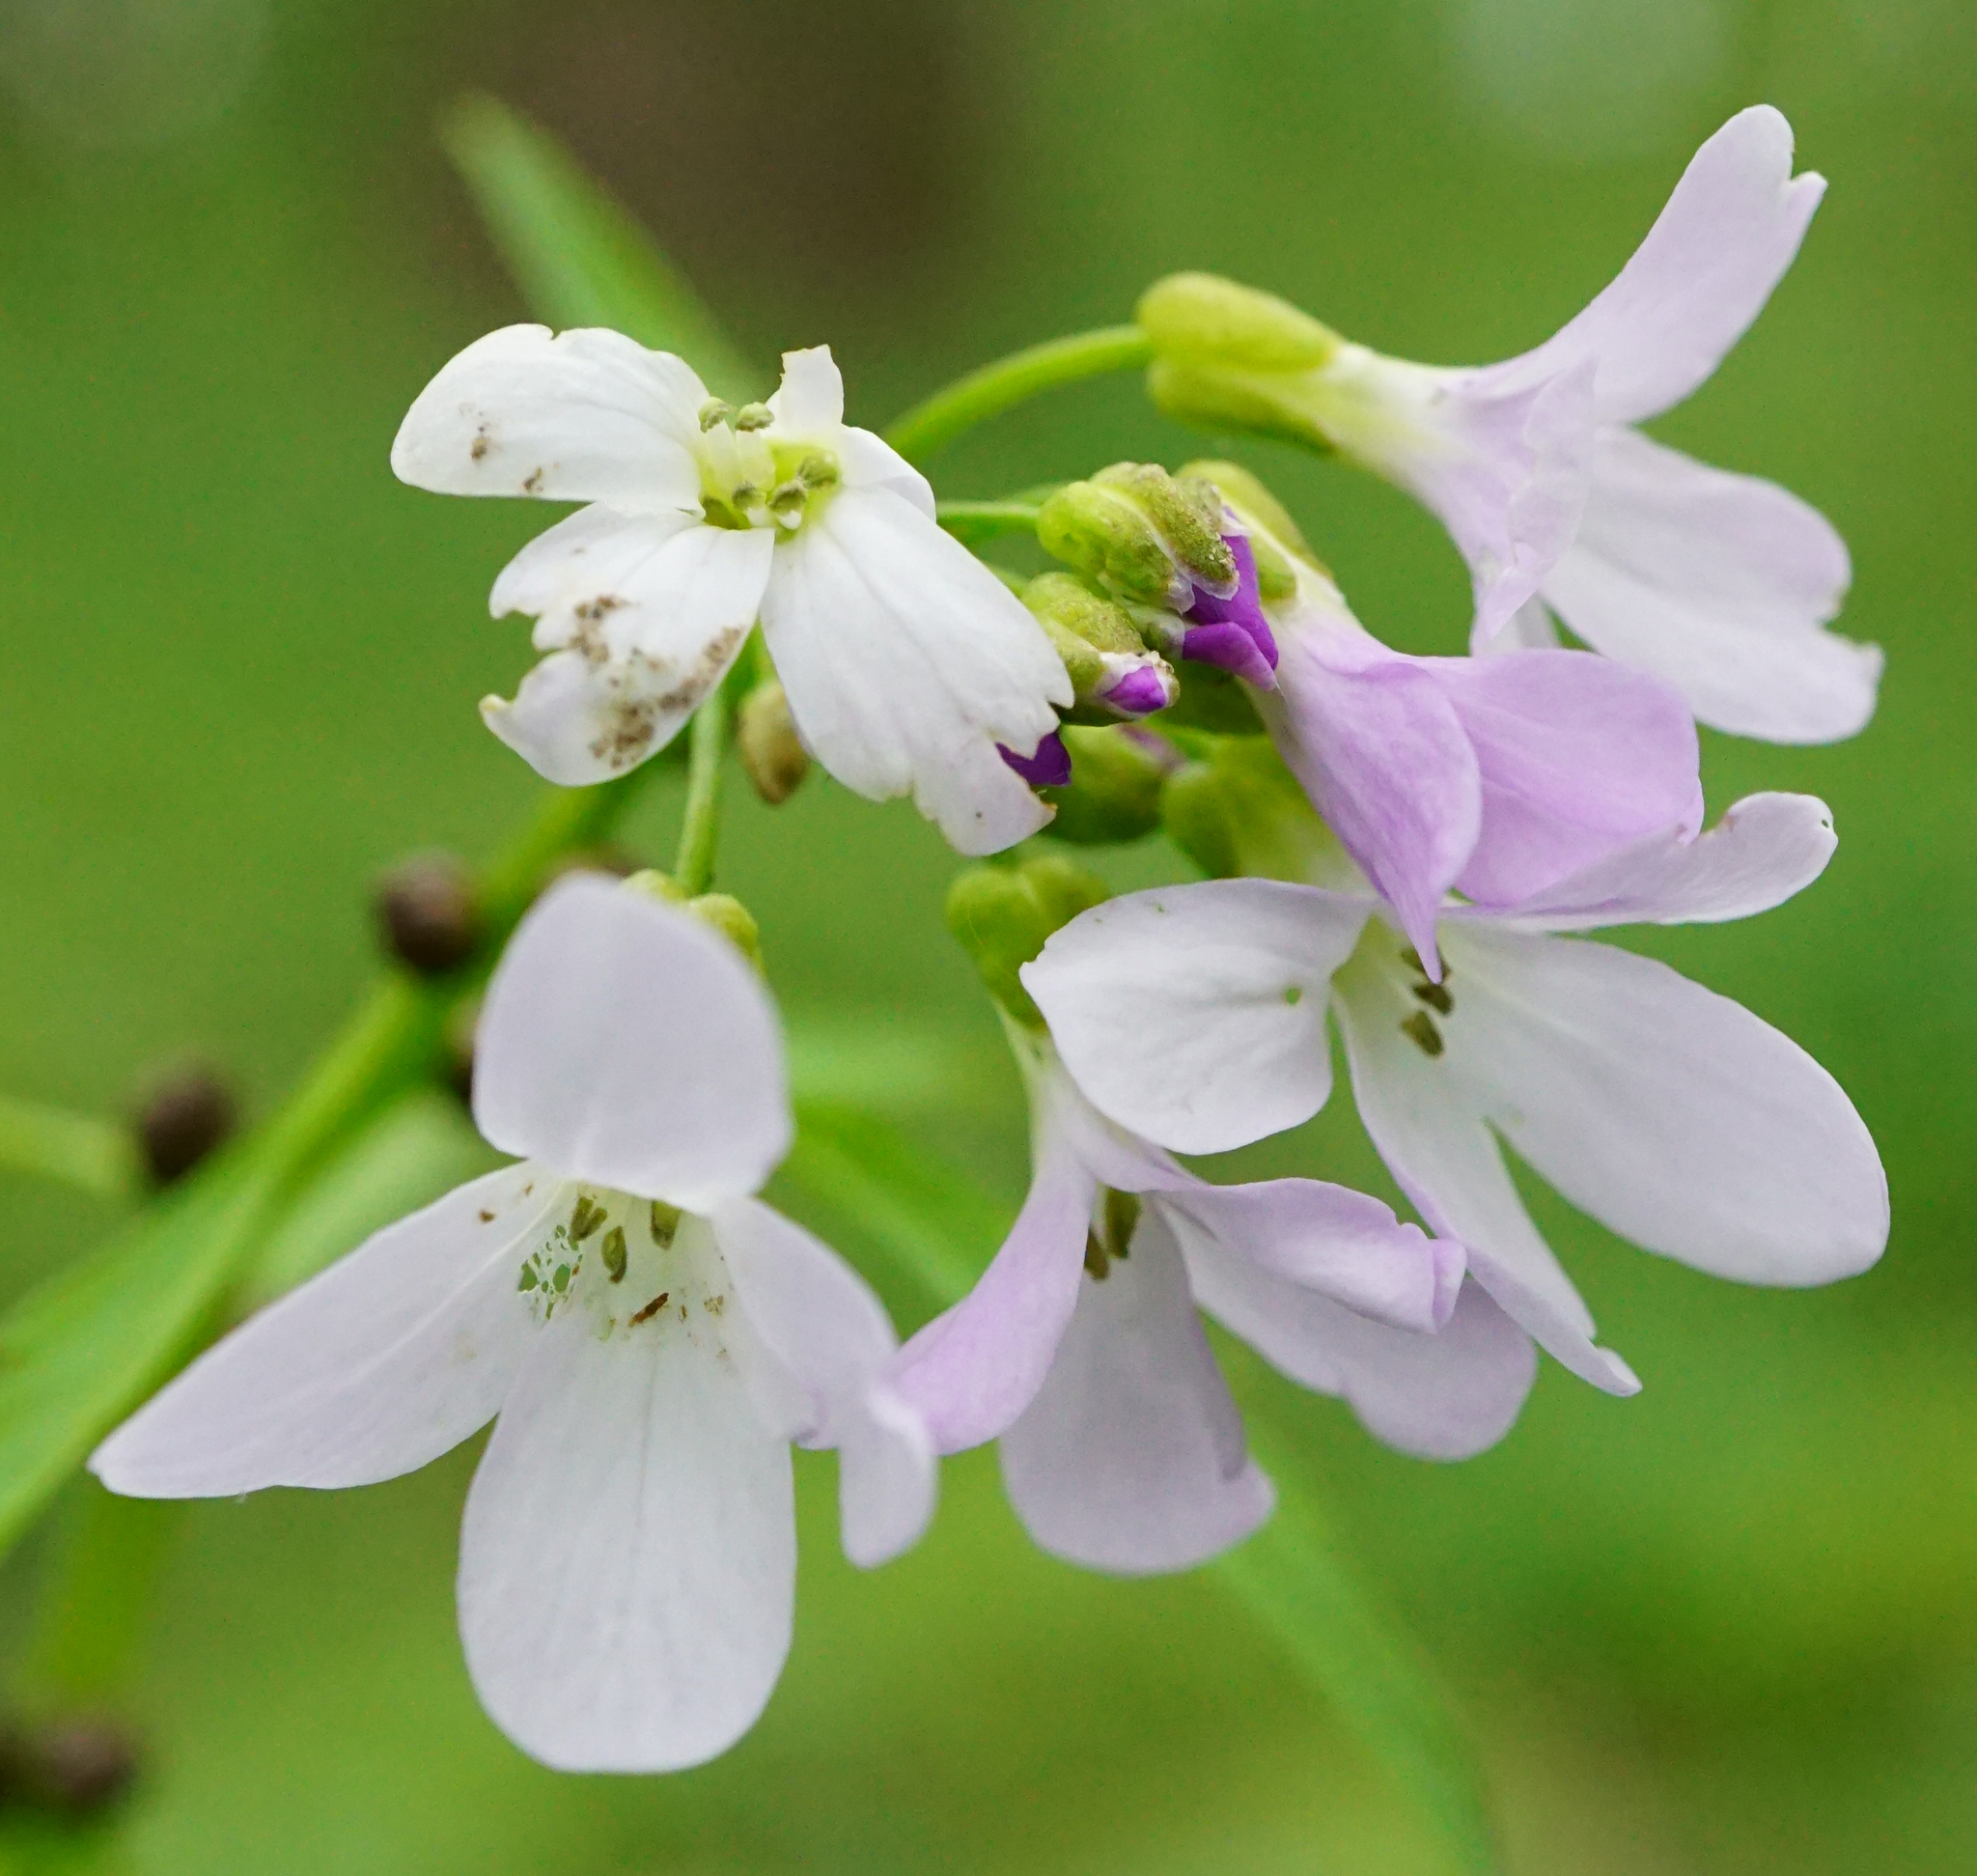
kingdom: Plantae
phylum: Tracheophyta
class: Magnoliopsida
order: Brassicales
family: Brassicaceae
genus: Cardamine
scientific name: Cardamine bulbifera
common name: Coralroot bittercress
